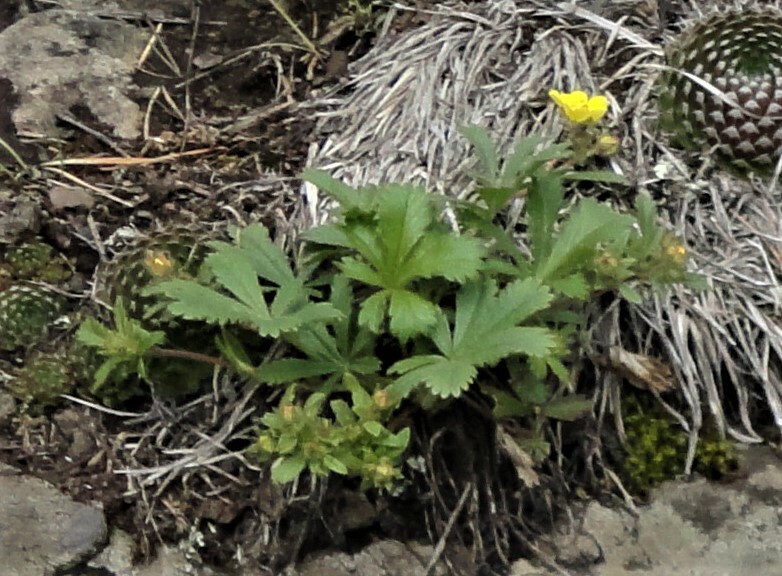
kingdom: Plantae
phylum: Tracheophyta
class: Magnoliopsida
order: Rosales
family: Rosaceae
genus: Potentilla
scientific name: Potentilla humifusa
